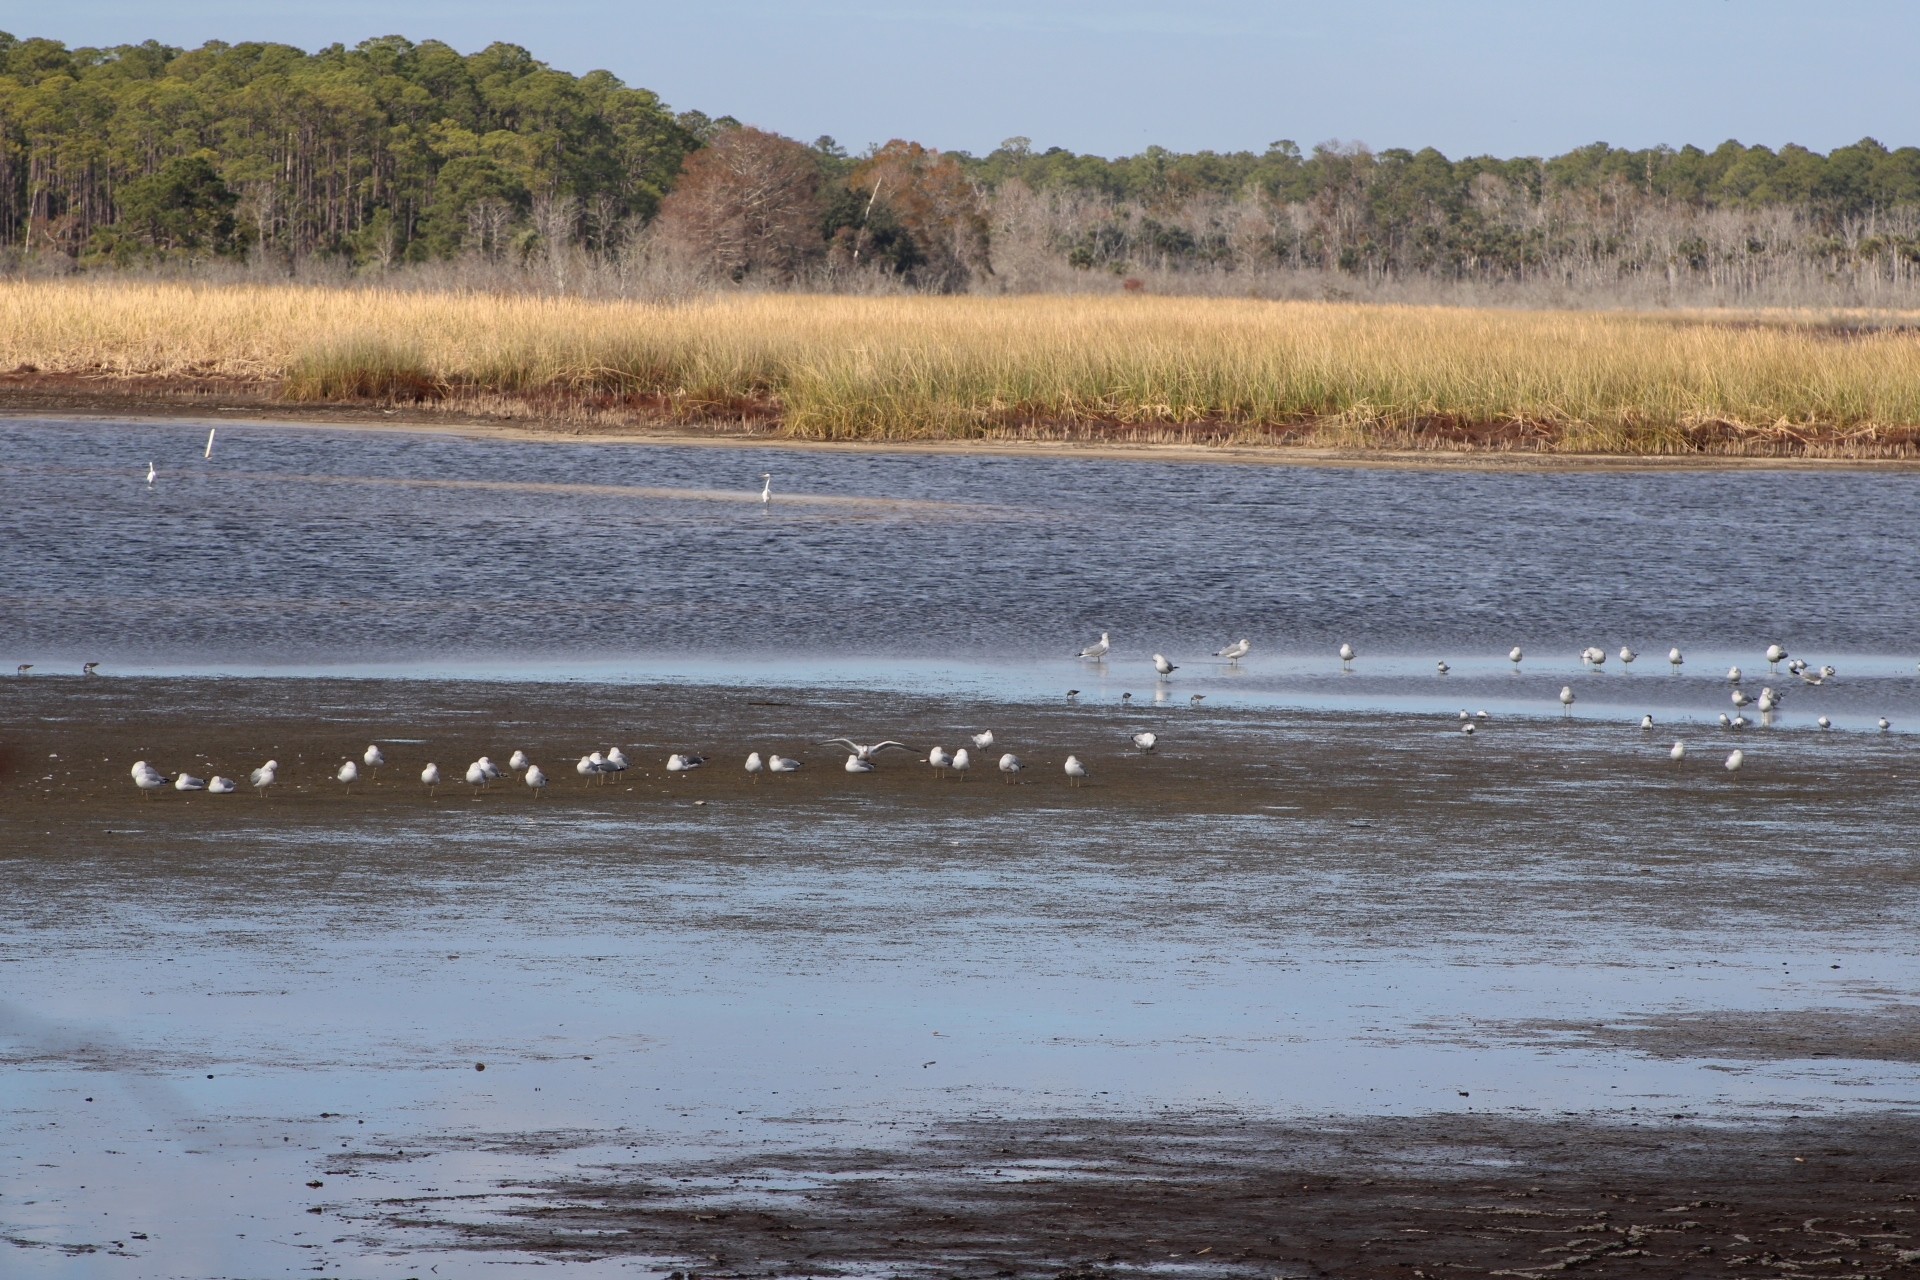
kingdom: Animalia
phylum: Chordata
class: Aves
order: Charadriiformes
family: Laridae
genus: Larus
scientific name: Larus delawarensis
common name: Ring-billed gull
